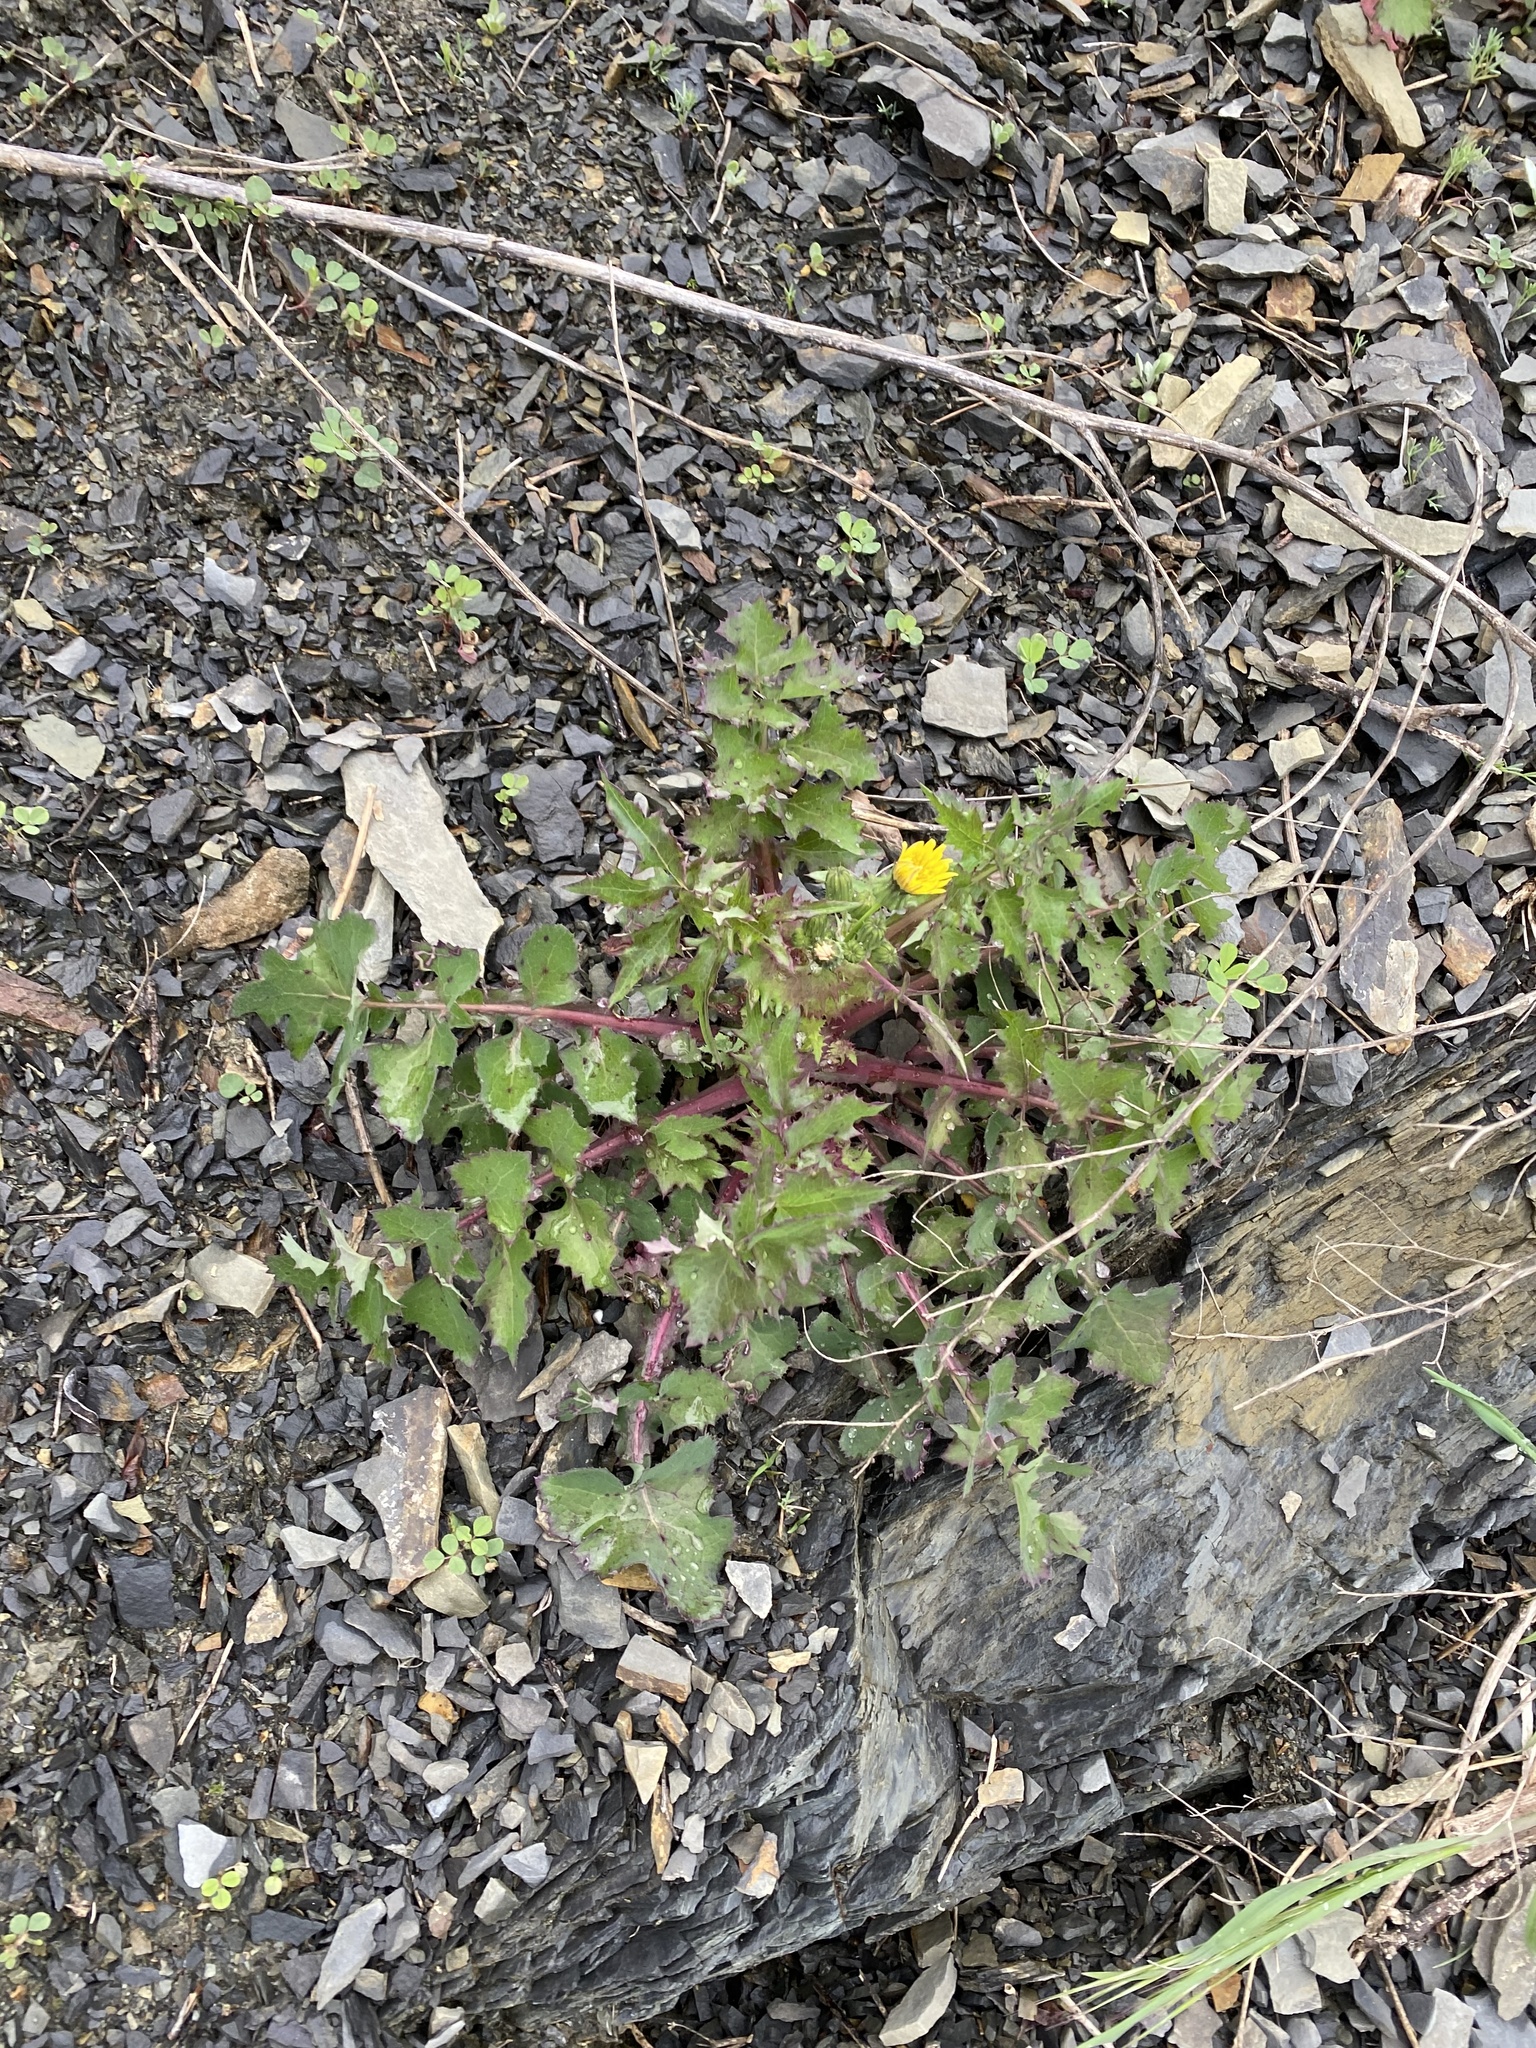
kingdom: Plantae
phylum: Tracheophyta
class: Magnoliopsida
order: Asterales
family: Asteraceae
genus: Sonchus
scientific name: Sonchus oleraceus
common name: Common sowthistle
